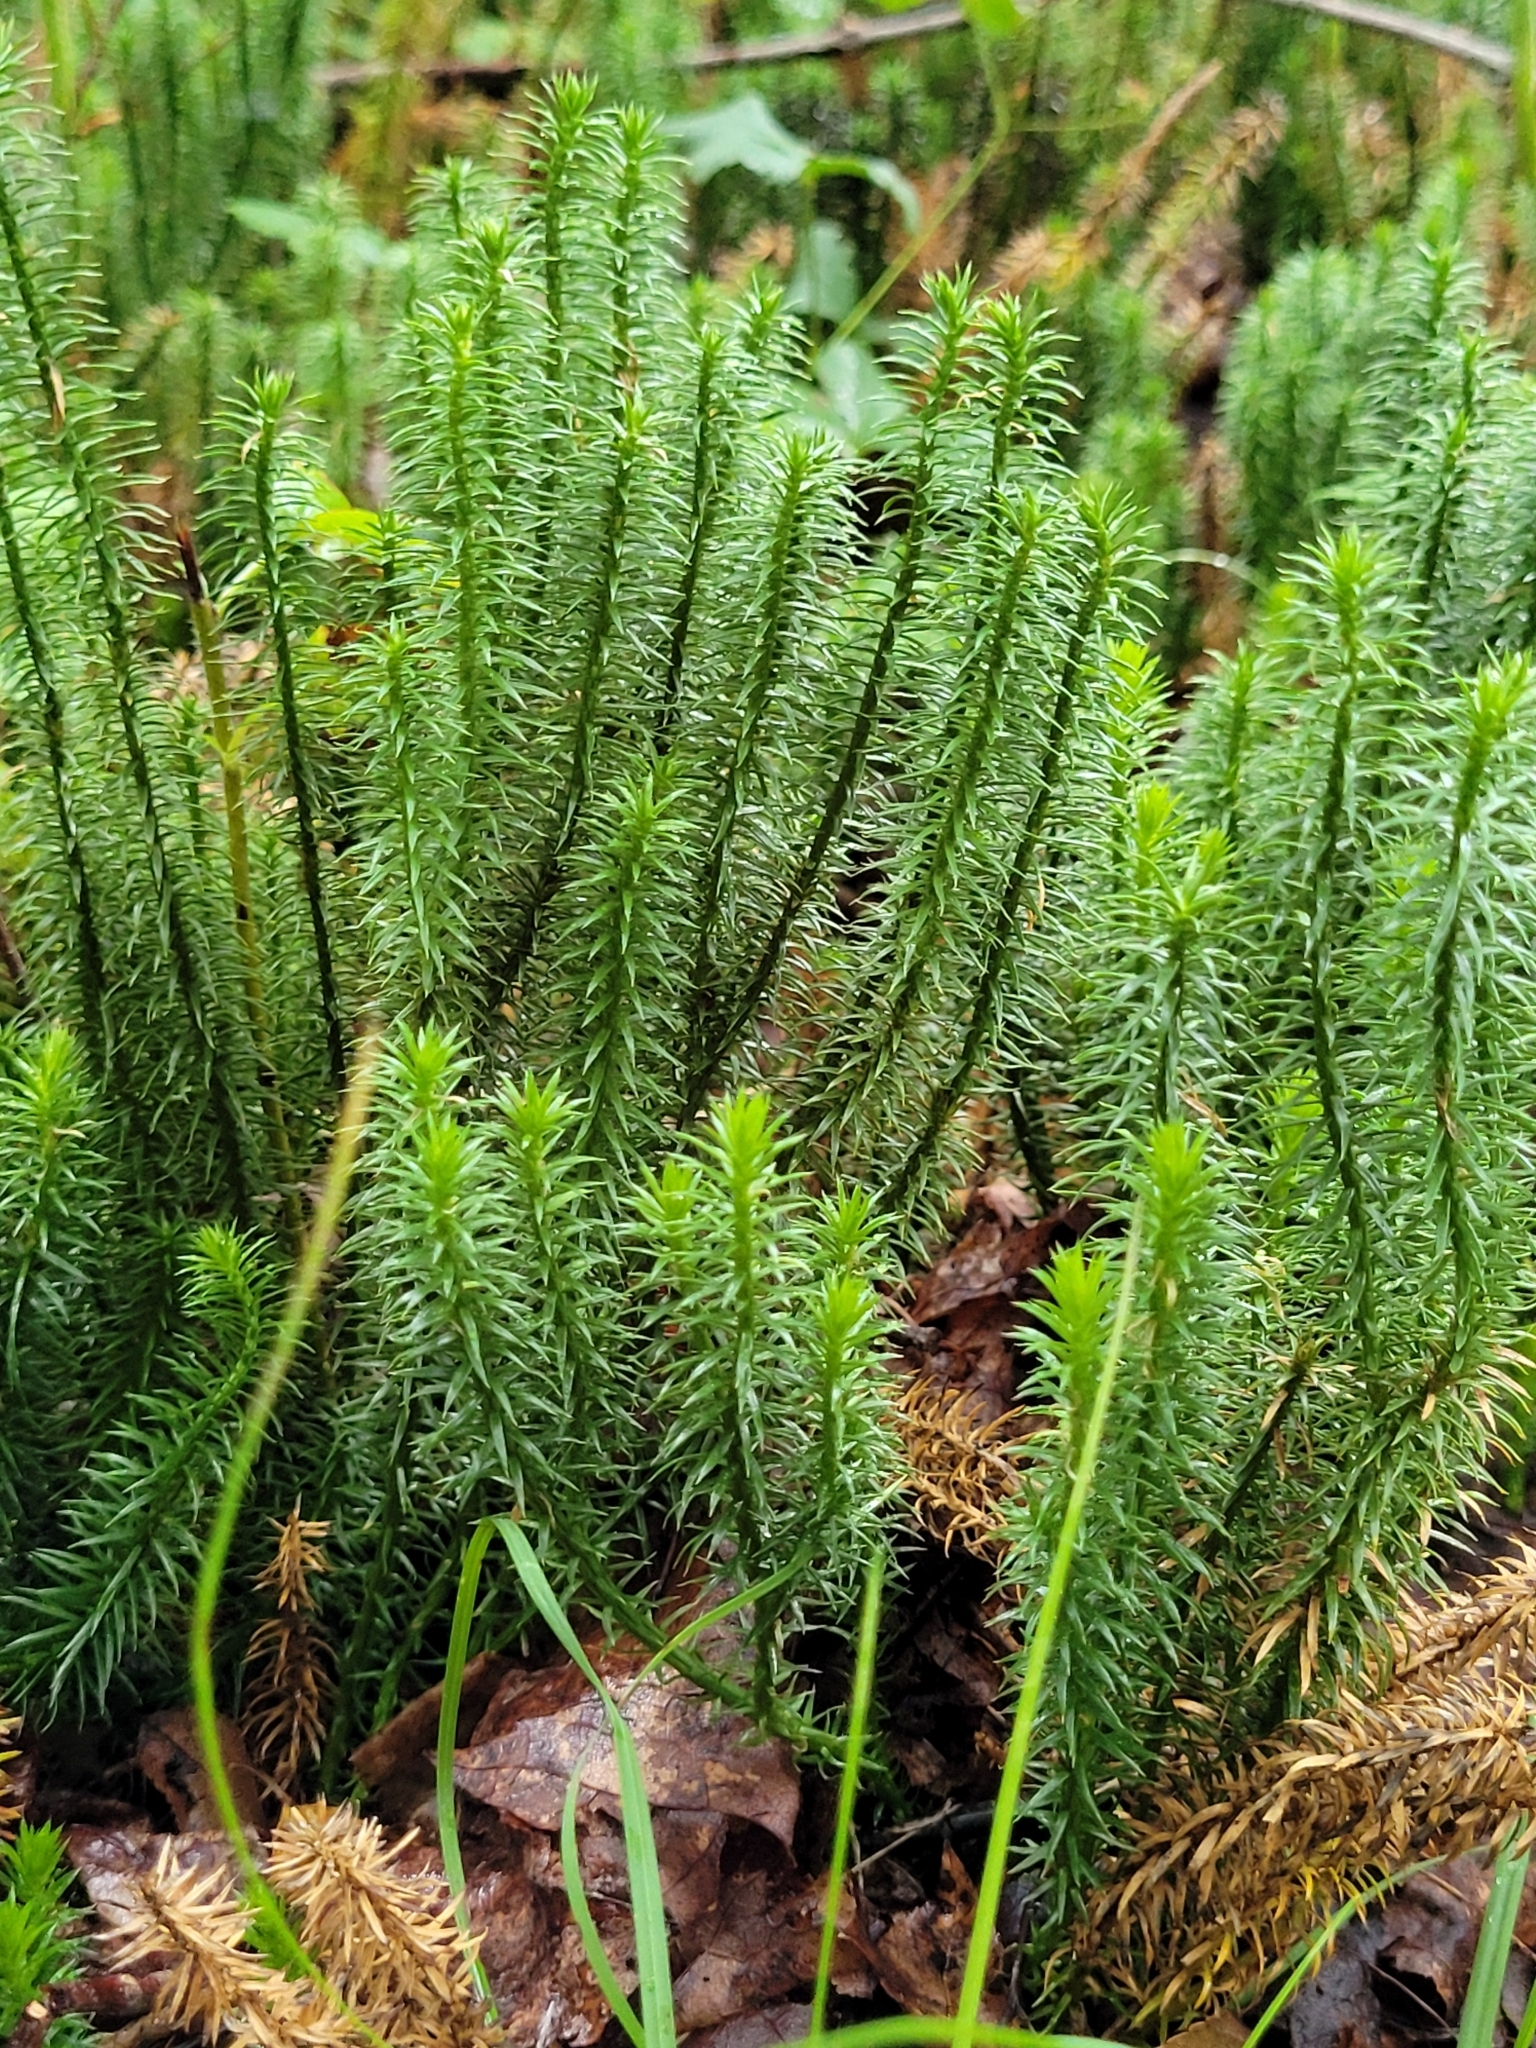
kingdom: Plantae
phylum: Tracheophyta
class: Lycopodiopsida
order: Lycopodiales
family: Lycopodiaceae
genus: Spinulum
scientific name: Spinulum annotinum
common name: Interrupted club-moss
